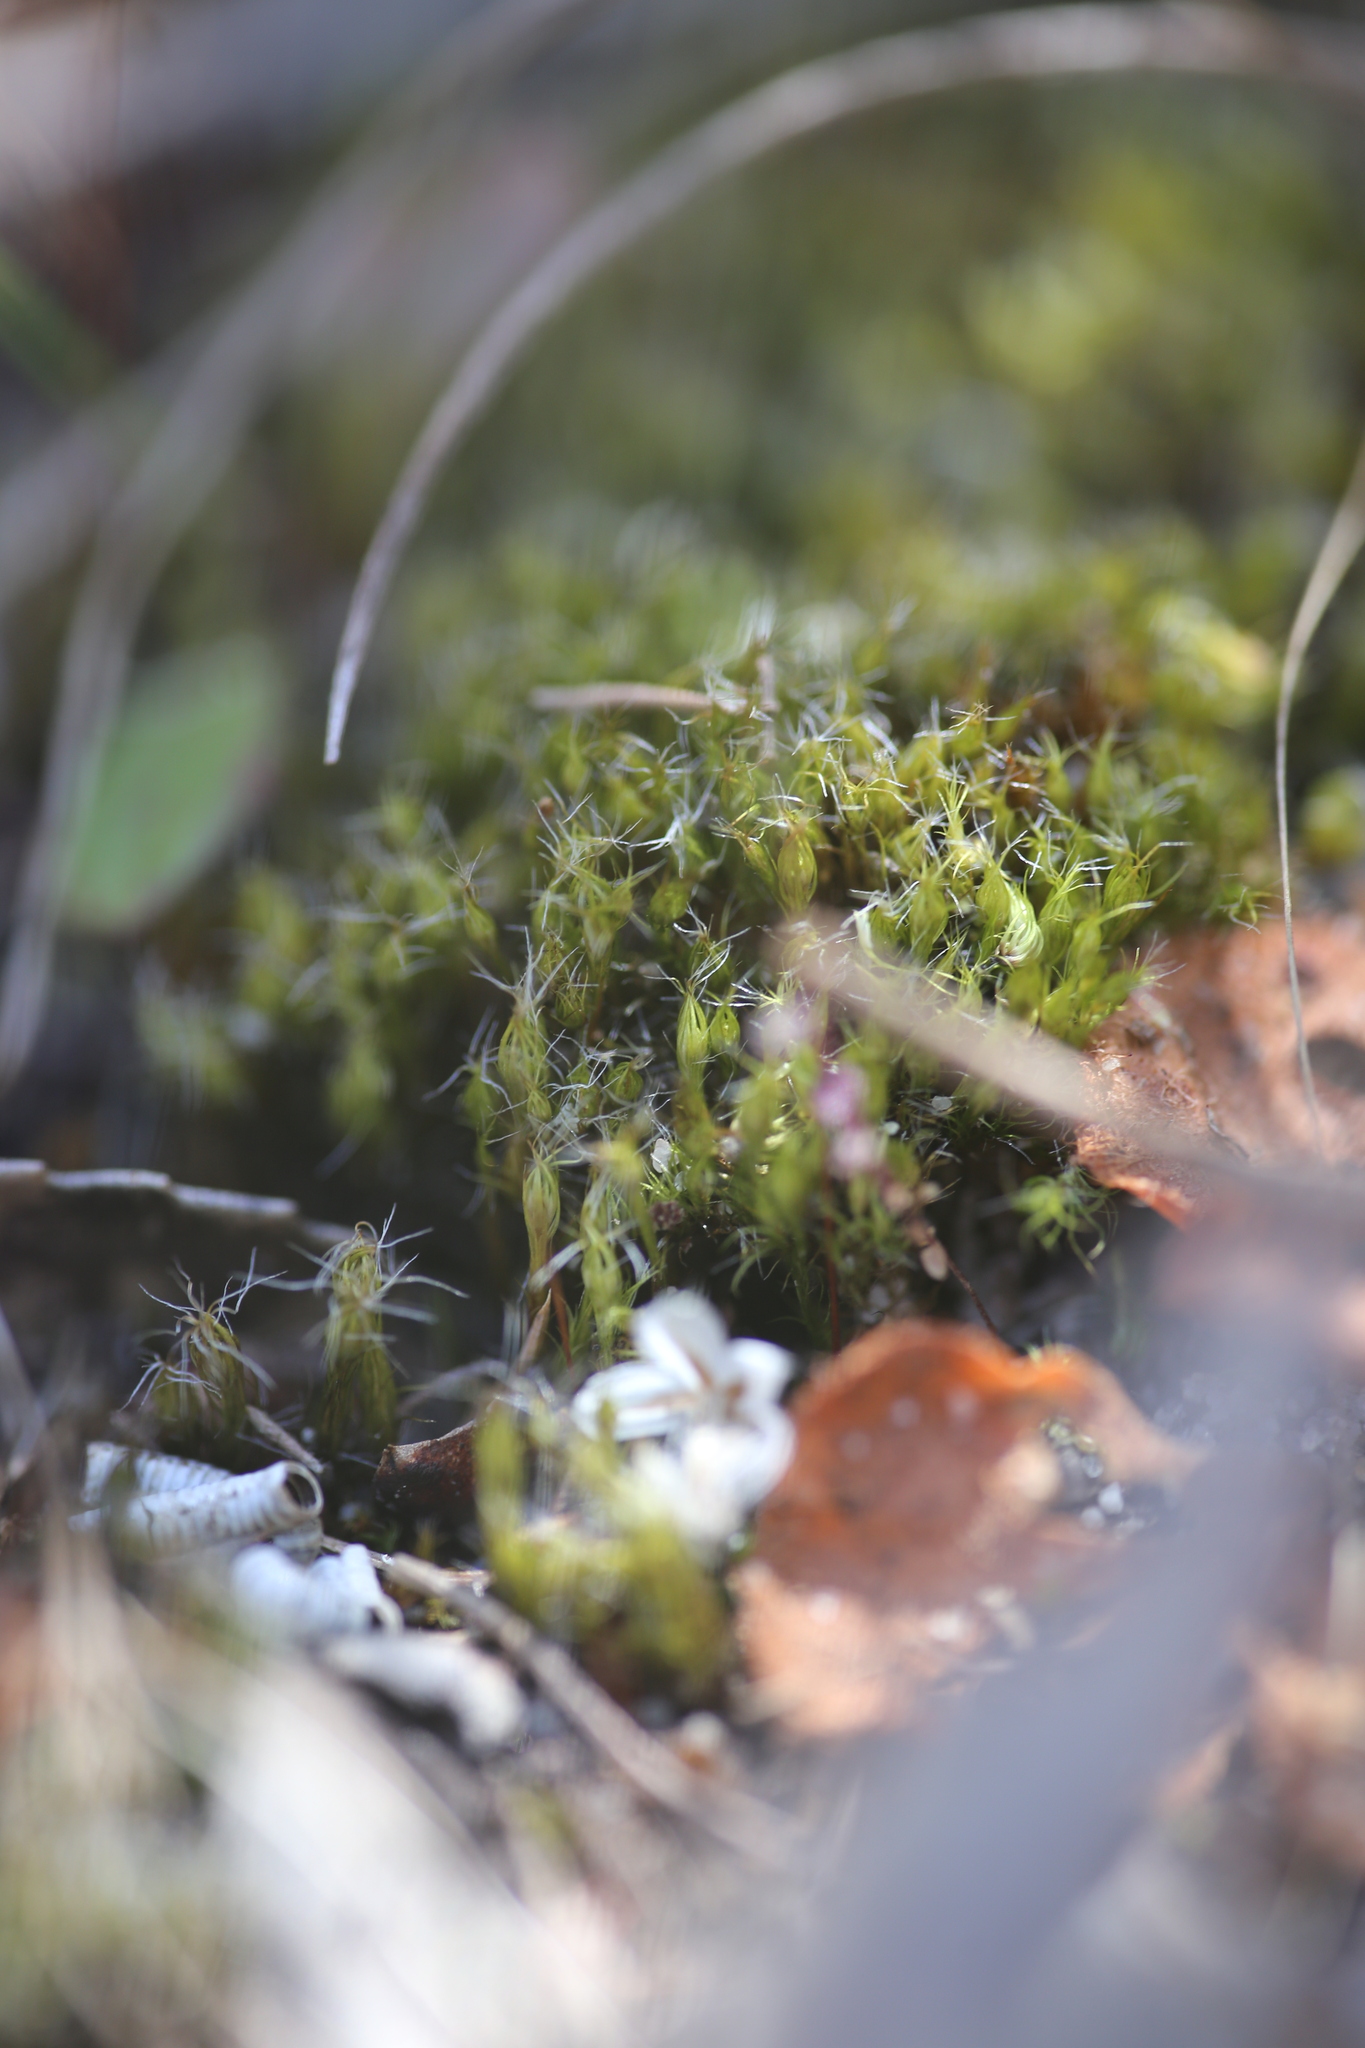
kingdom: Plantae
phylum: Bryophyta
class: Bryopsida
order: Dicranales
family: Leucobryaceae
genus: Campylopus
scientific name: Campylopus introflexus
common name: Heath star moss
